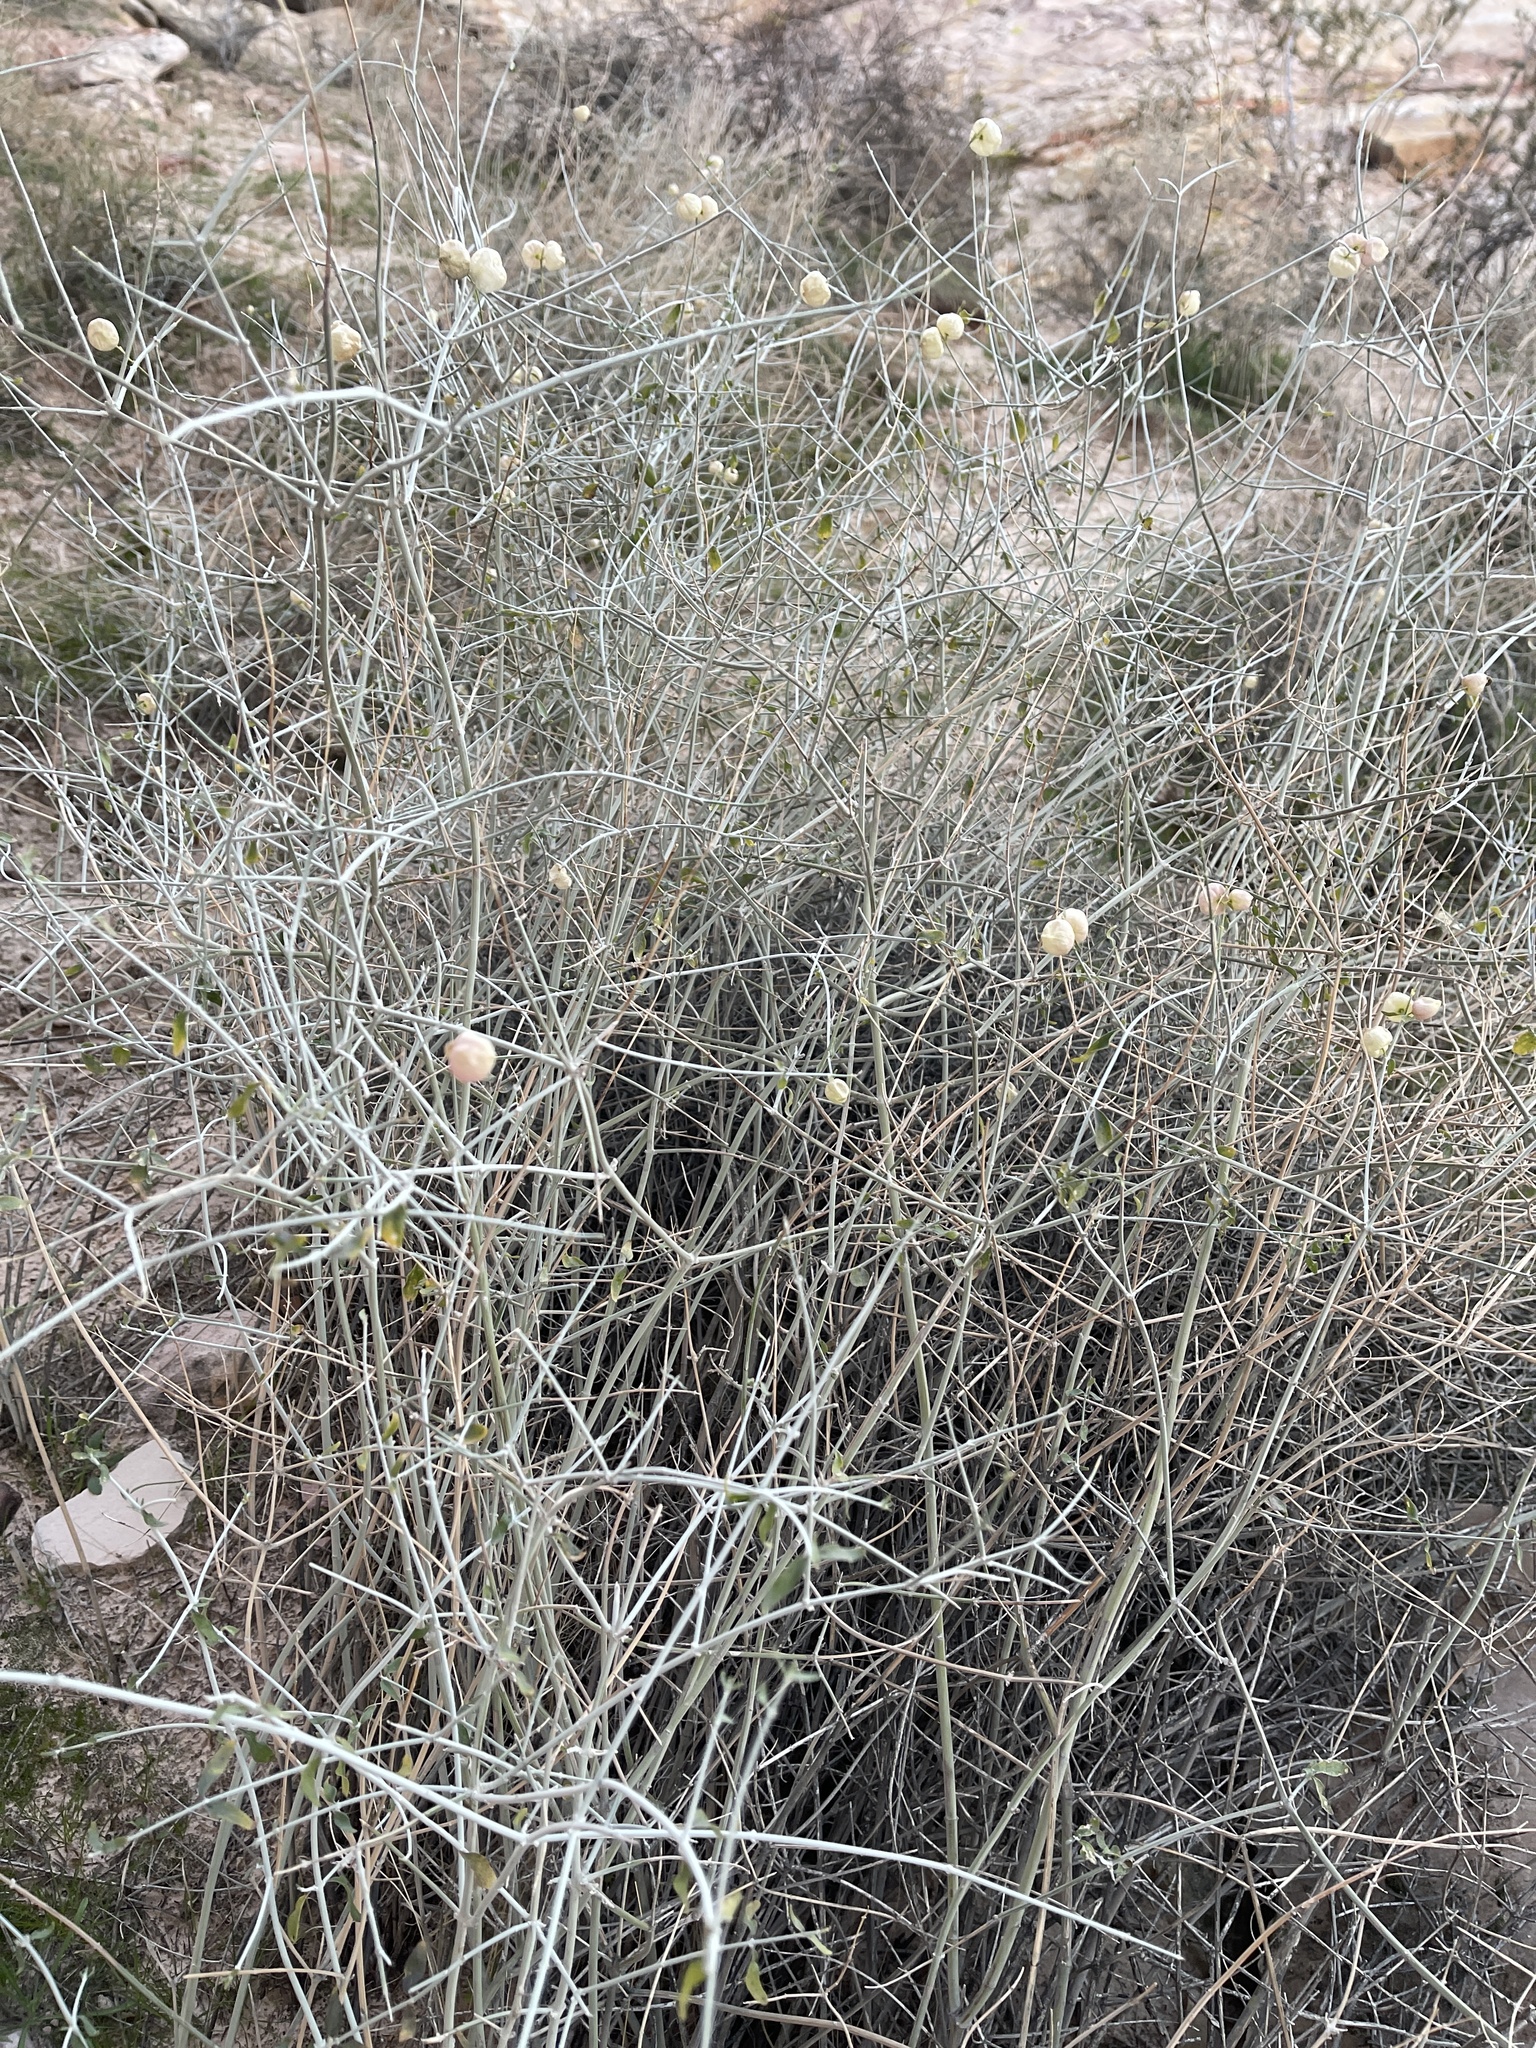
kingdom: Plantae
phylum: Tracheophyta
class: Magnoliopsida
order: Lamiales
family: Lamiaceae
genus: Scutellaria
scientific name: Scutellaria mexicana
